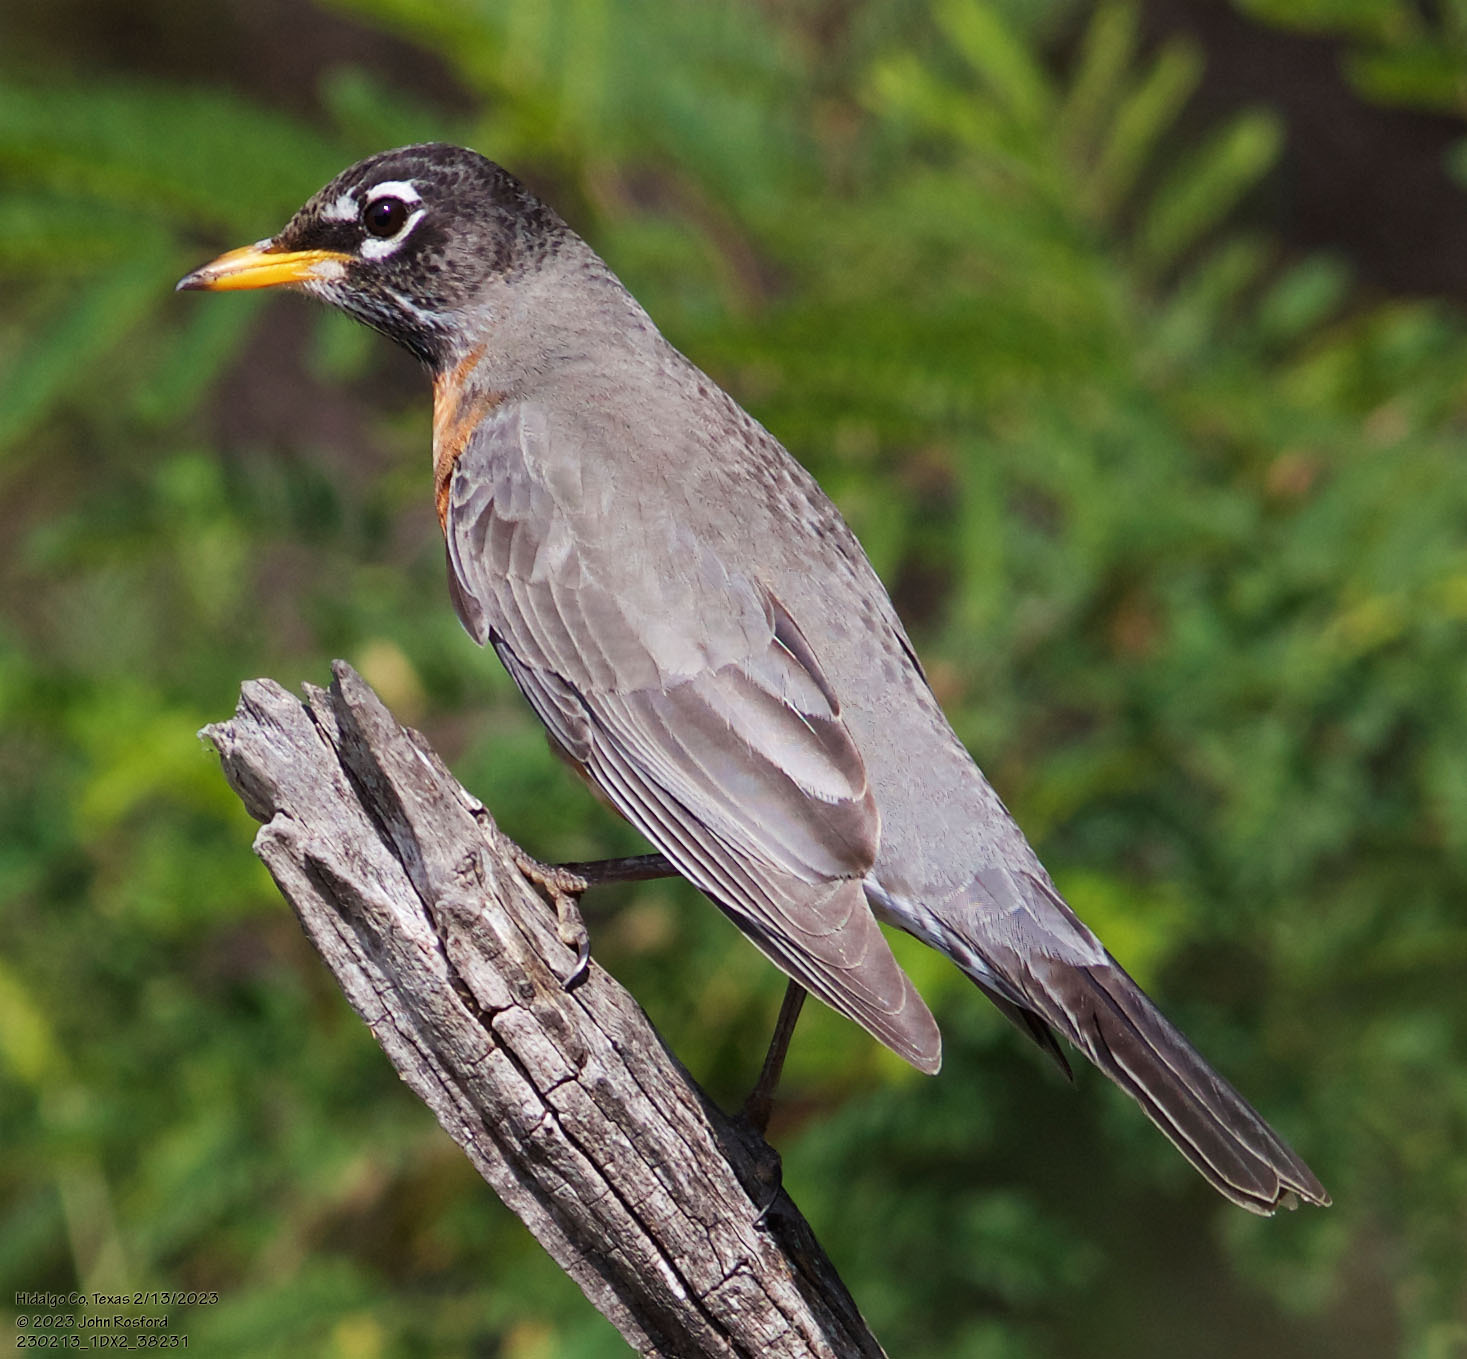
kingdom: Animalia
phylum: Chordata
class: Aves
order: Passeriformes
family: Turdidae
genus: Turdus
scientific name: Turdus migratorius
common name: American robin
